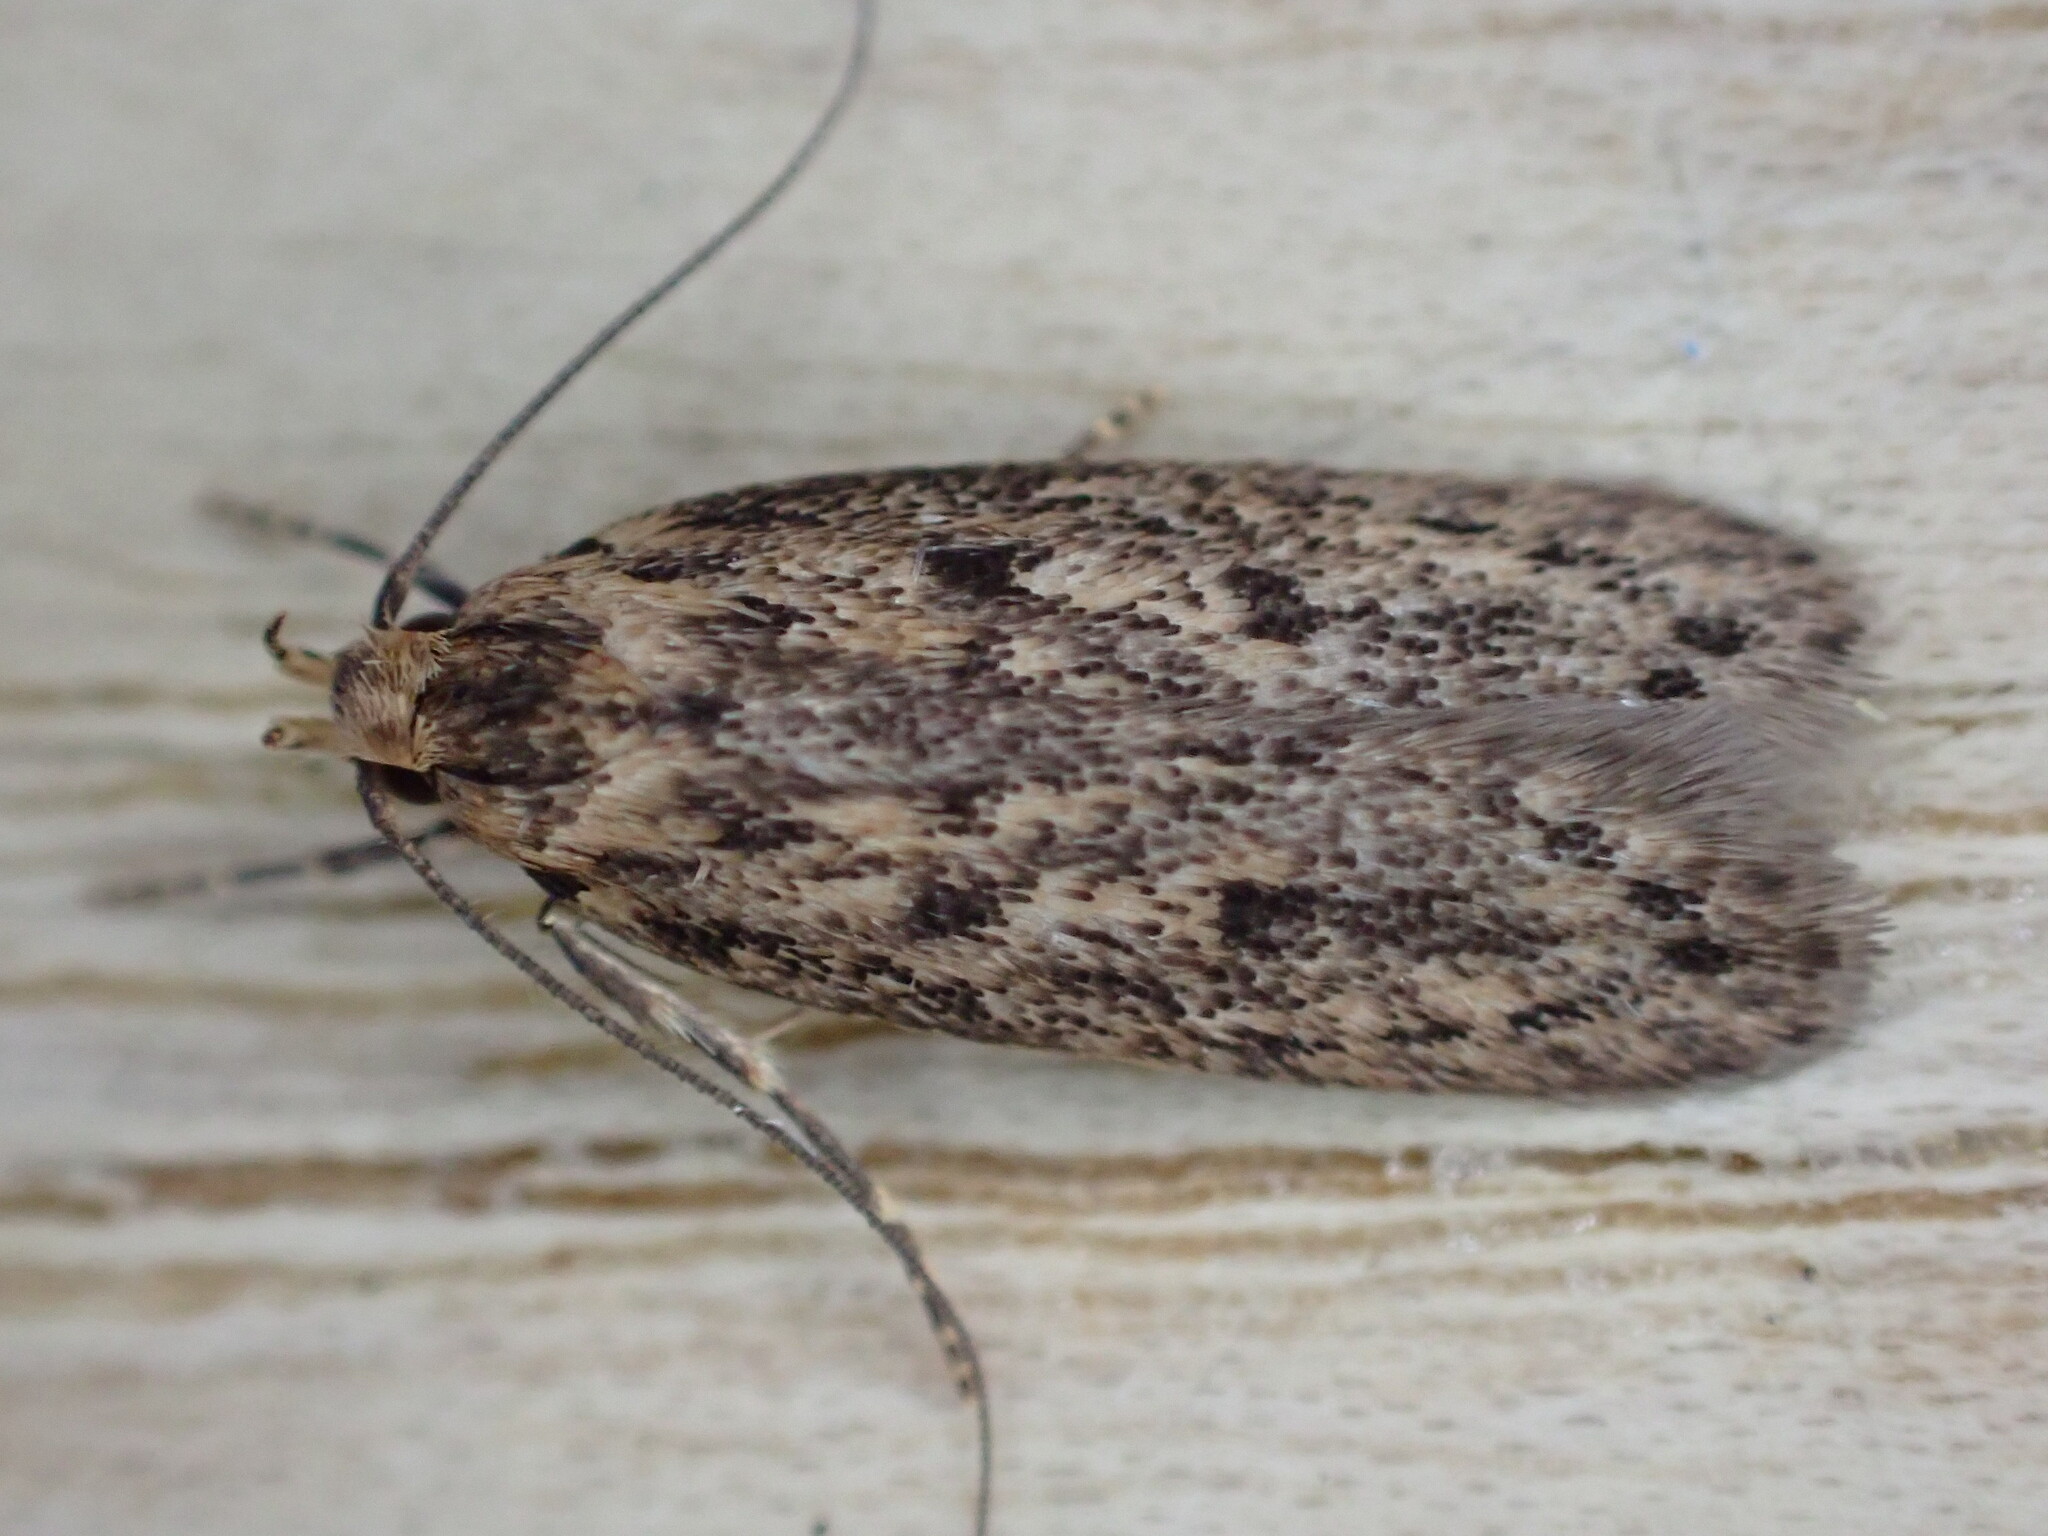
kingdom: Animalia
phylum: Arthropoda
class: Insecta
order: Lepidoptera
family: Oecophoridae
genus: Hofmannophila
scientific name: Hofmannophila pseudospretella
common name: Brown house moth
